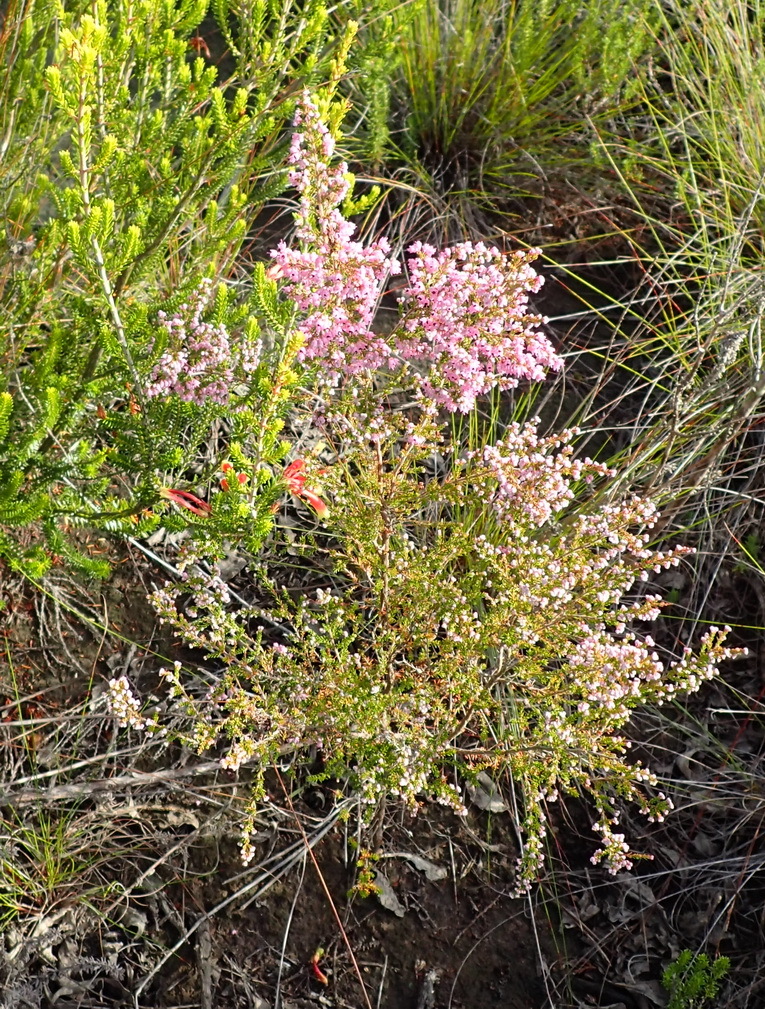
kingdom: Plantae
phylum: Tracheophyta
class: Magnoliopsida
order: Ericales
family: Ericaceae
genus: Erica
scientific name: Erica sparsa
